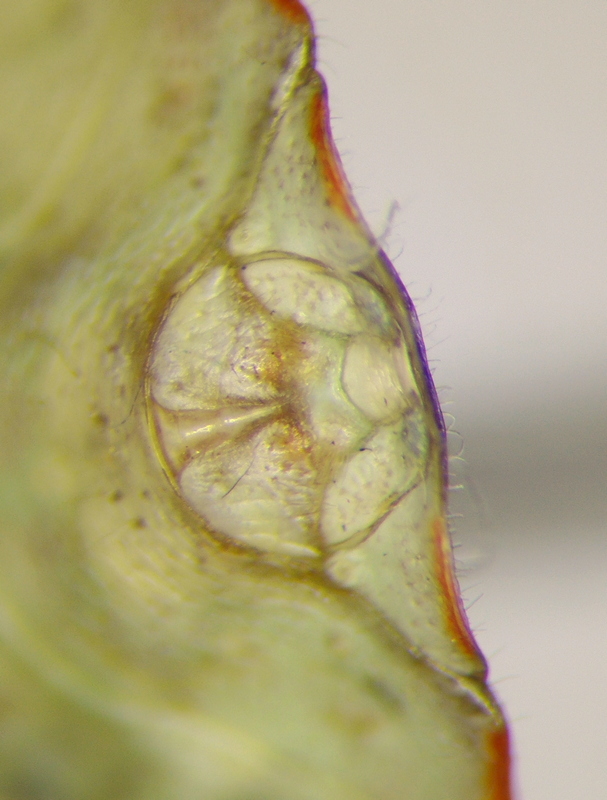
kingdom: Animalia
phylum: Arthropoda
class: Insecta
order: Hemiptera
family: Pentatomidae
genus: Thyanta
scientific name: Thyanta custator
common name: Stink bug
